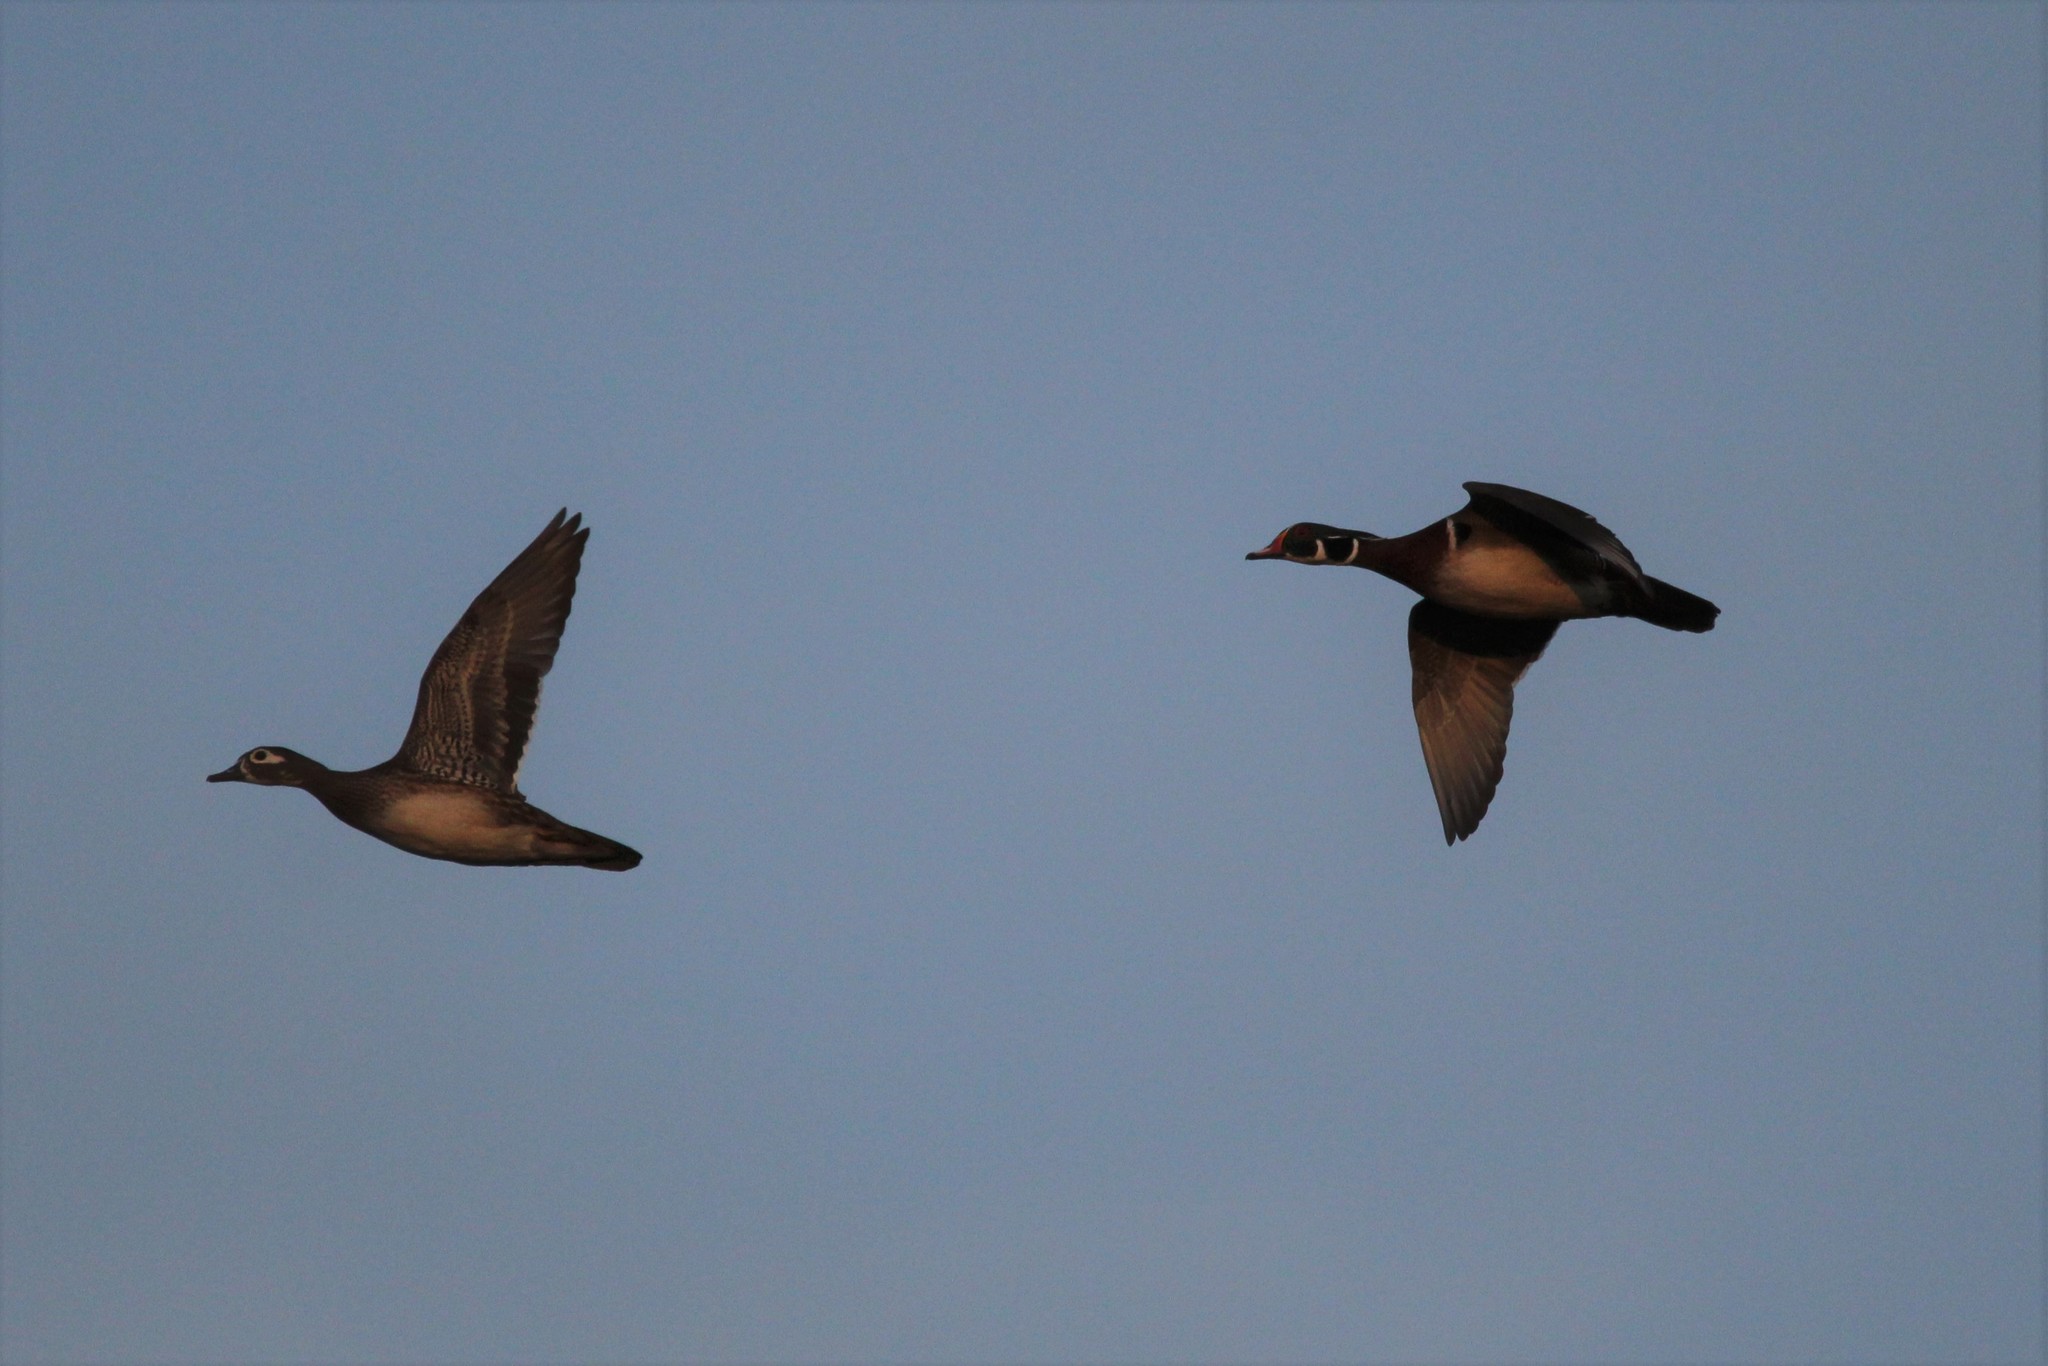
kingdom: Animalia
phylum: Chordata
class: Aves
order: Anseriformes
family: Anatidae
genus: Aix
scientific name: Aix sponsa
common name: Wood duck
